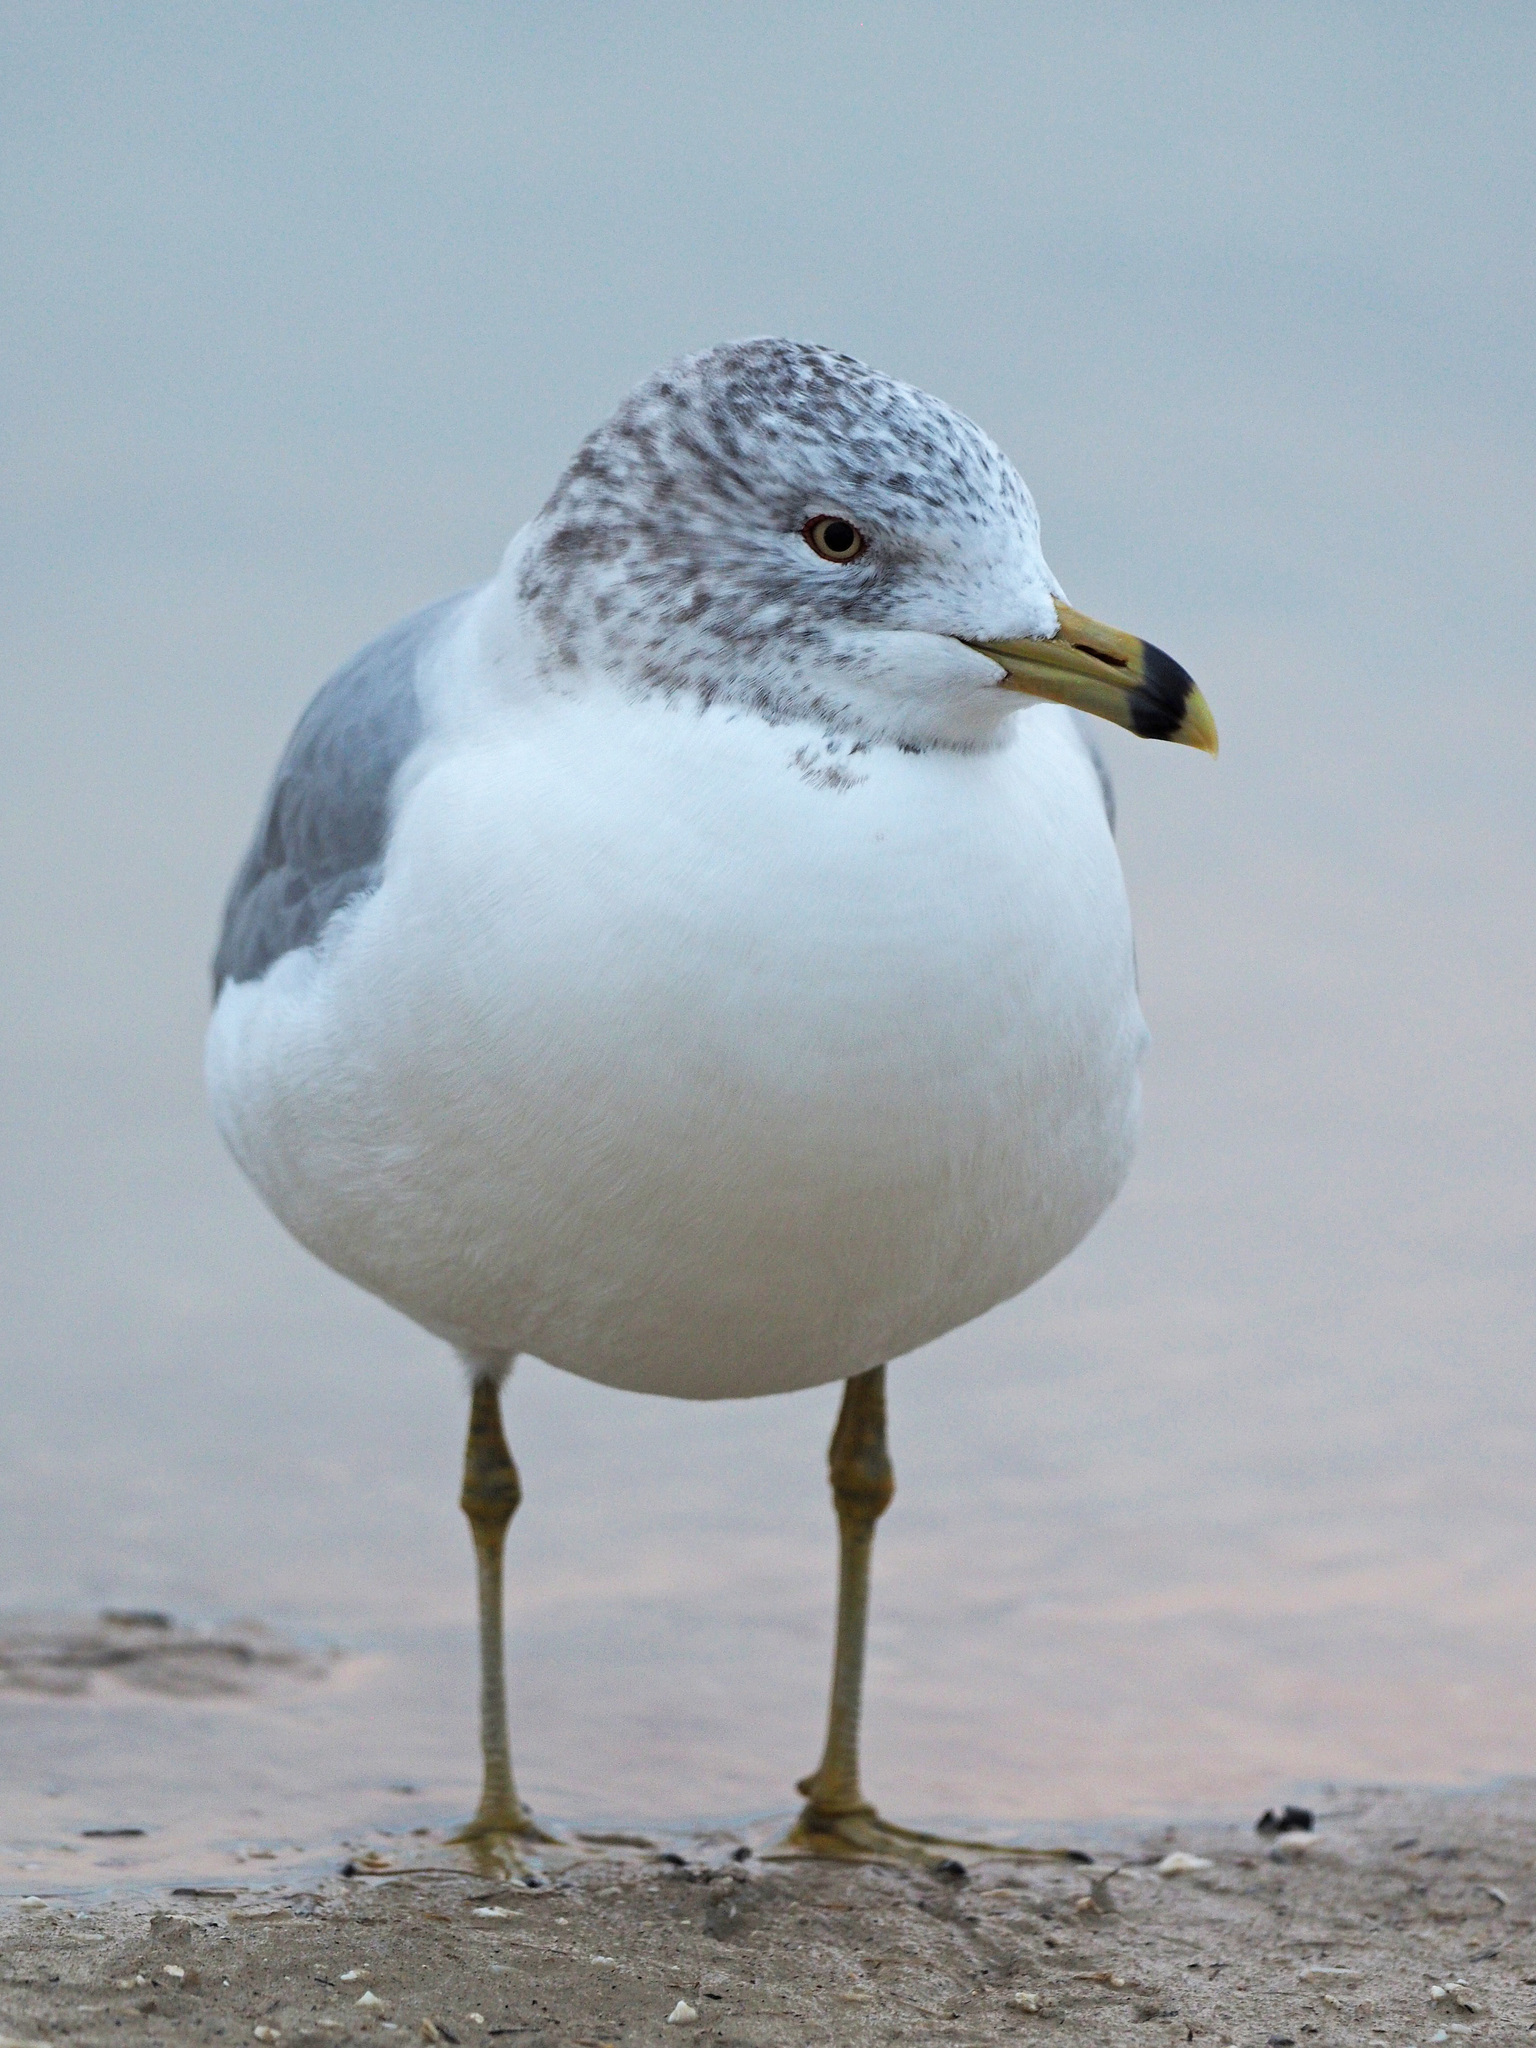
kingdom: Animalia
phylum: Chordata
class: Aves
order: Charadriiformes
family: Laridae
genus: Larus
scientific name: Larus delawarensis
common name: Ring-billed gull
